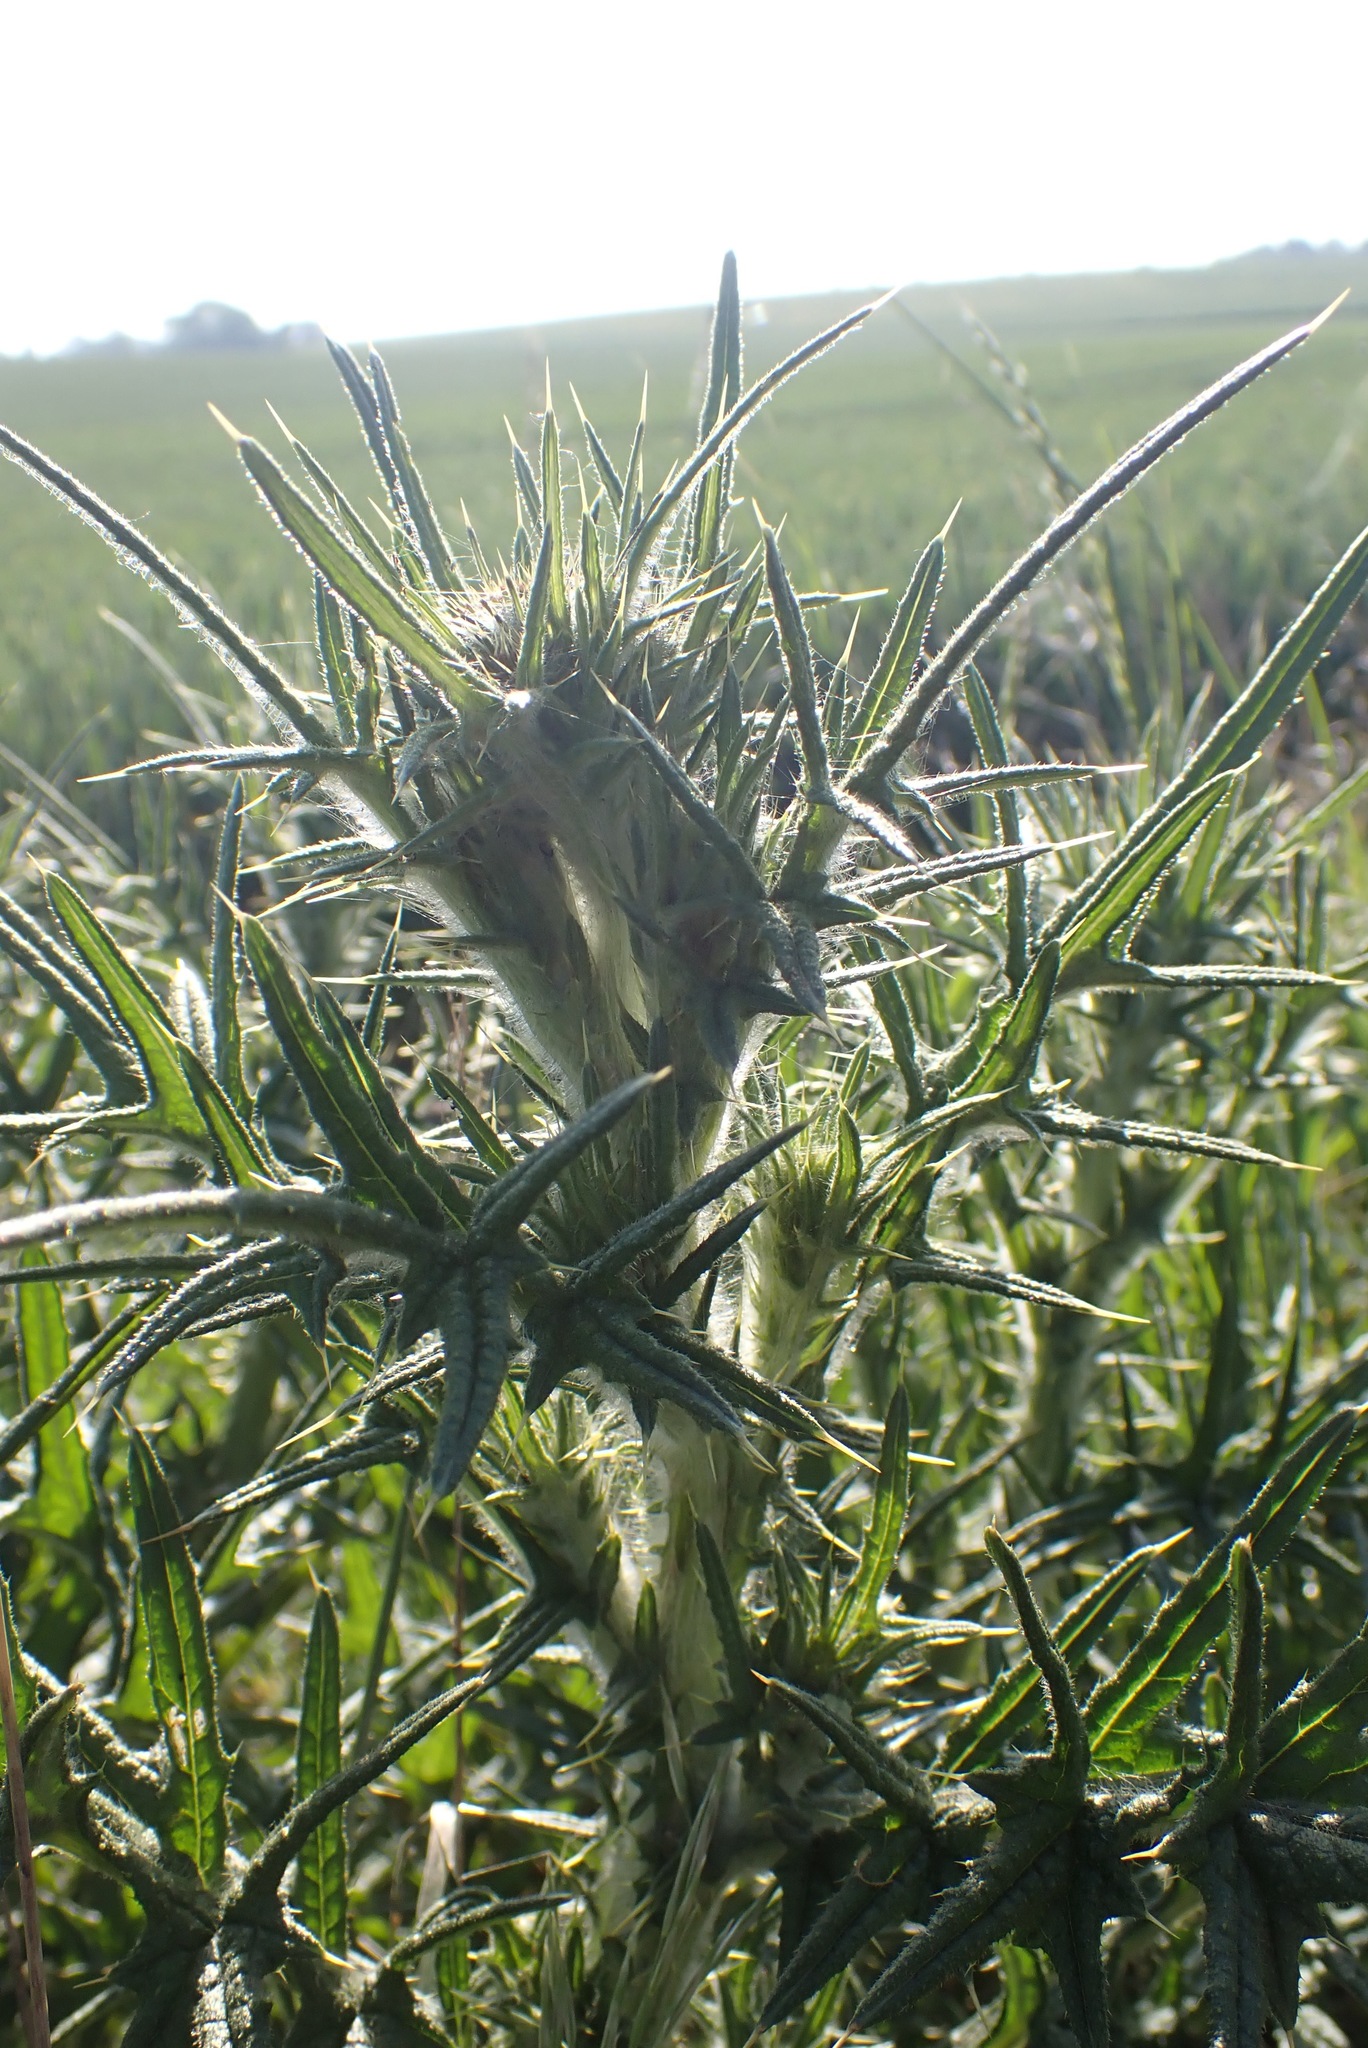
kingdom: Plantae
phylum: Tracheophyta
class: Magnoliopsida
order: Asterales
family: Asteraceae
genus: Cirsium
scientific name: Cirsium vulgare
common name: Bull thistle
